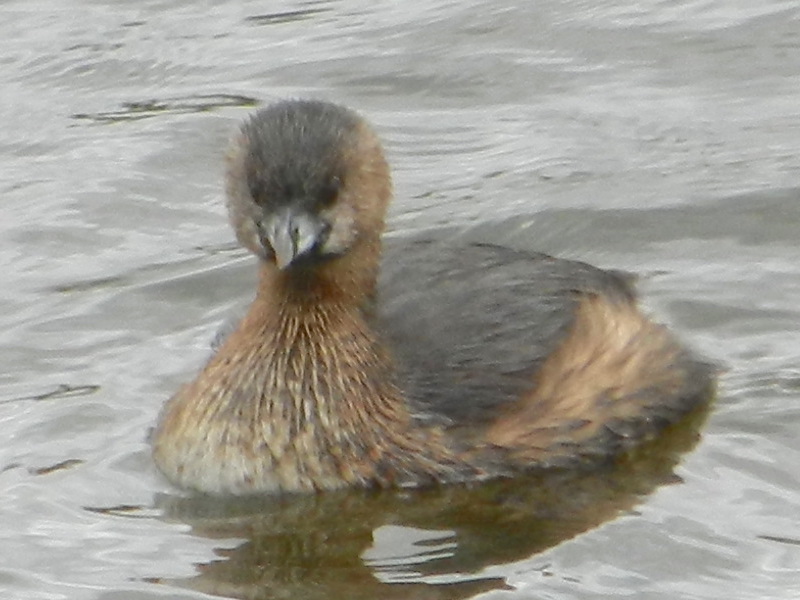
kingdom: Animalia
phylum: Chordata
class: Aves
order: Podicipediformes
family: Podicipedidae
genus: Podilymbus
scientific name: Podilymbus podiceps
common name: Pied-billed grebe
